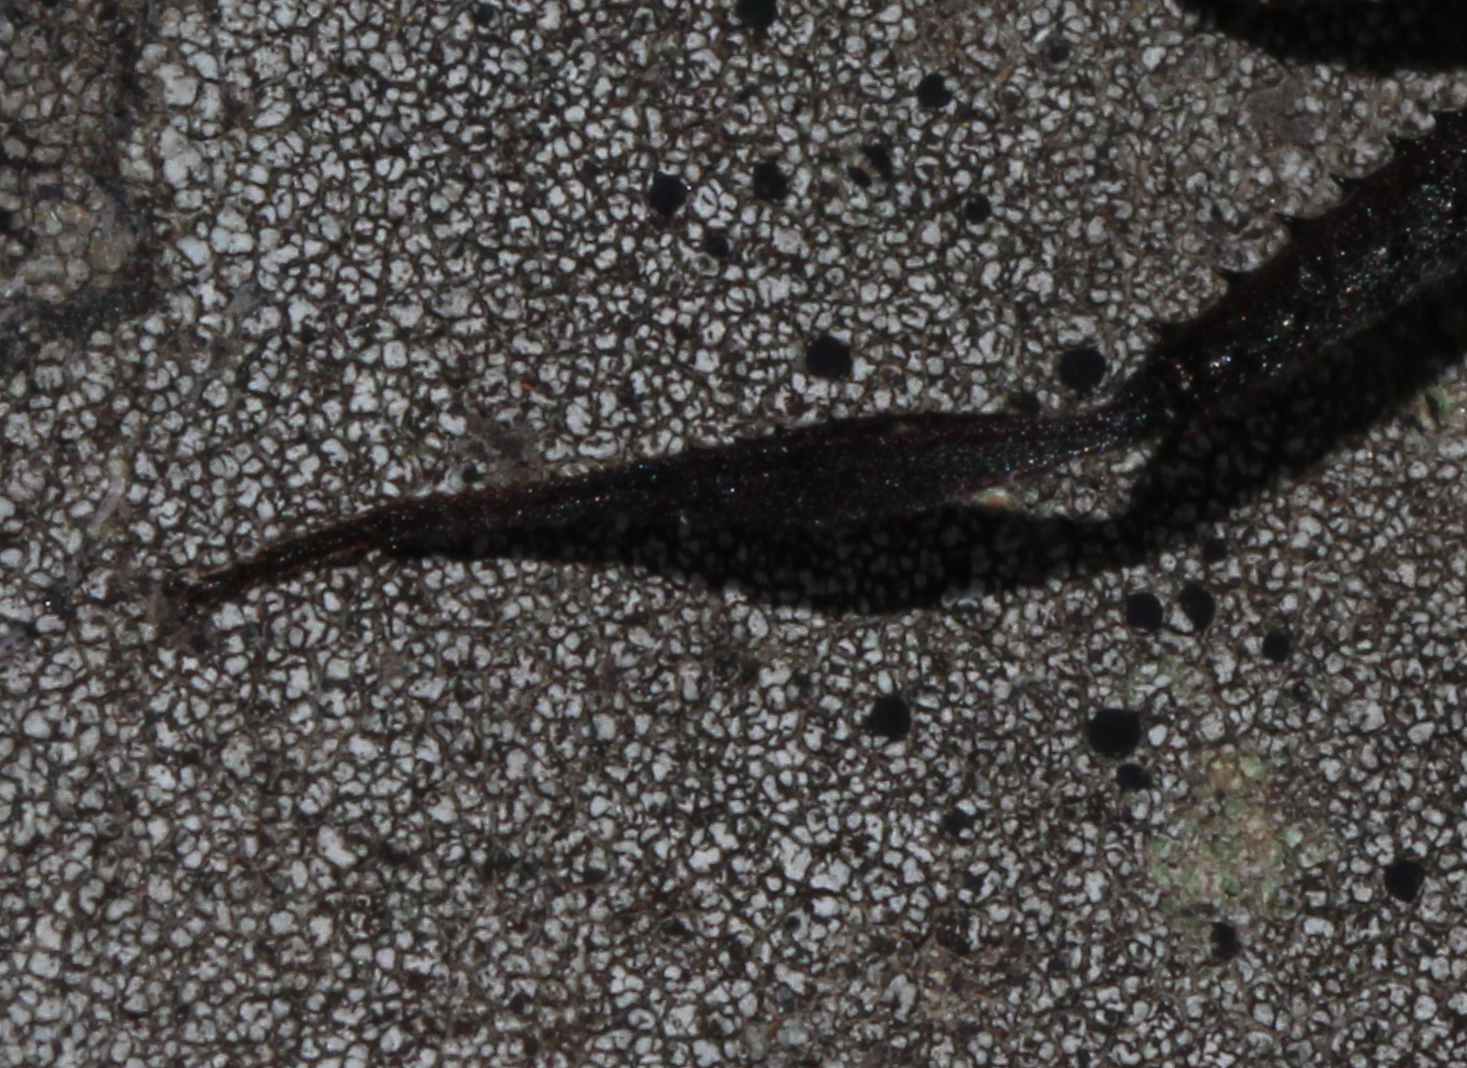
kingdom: Animalia
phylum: Arthropoda
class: Insecta
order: Hemiptera
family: Coreidae
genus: Leptoglossus
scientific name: Leptoglossus crassicornis
